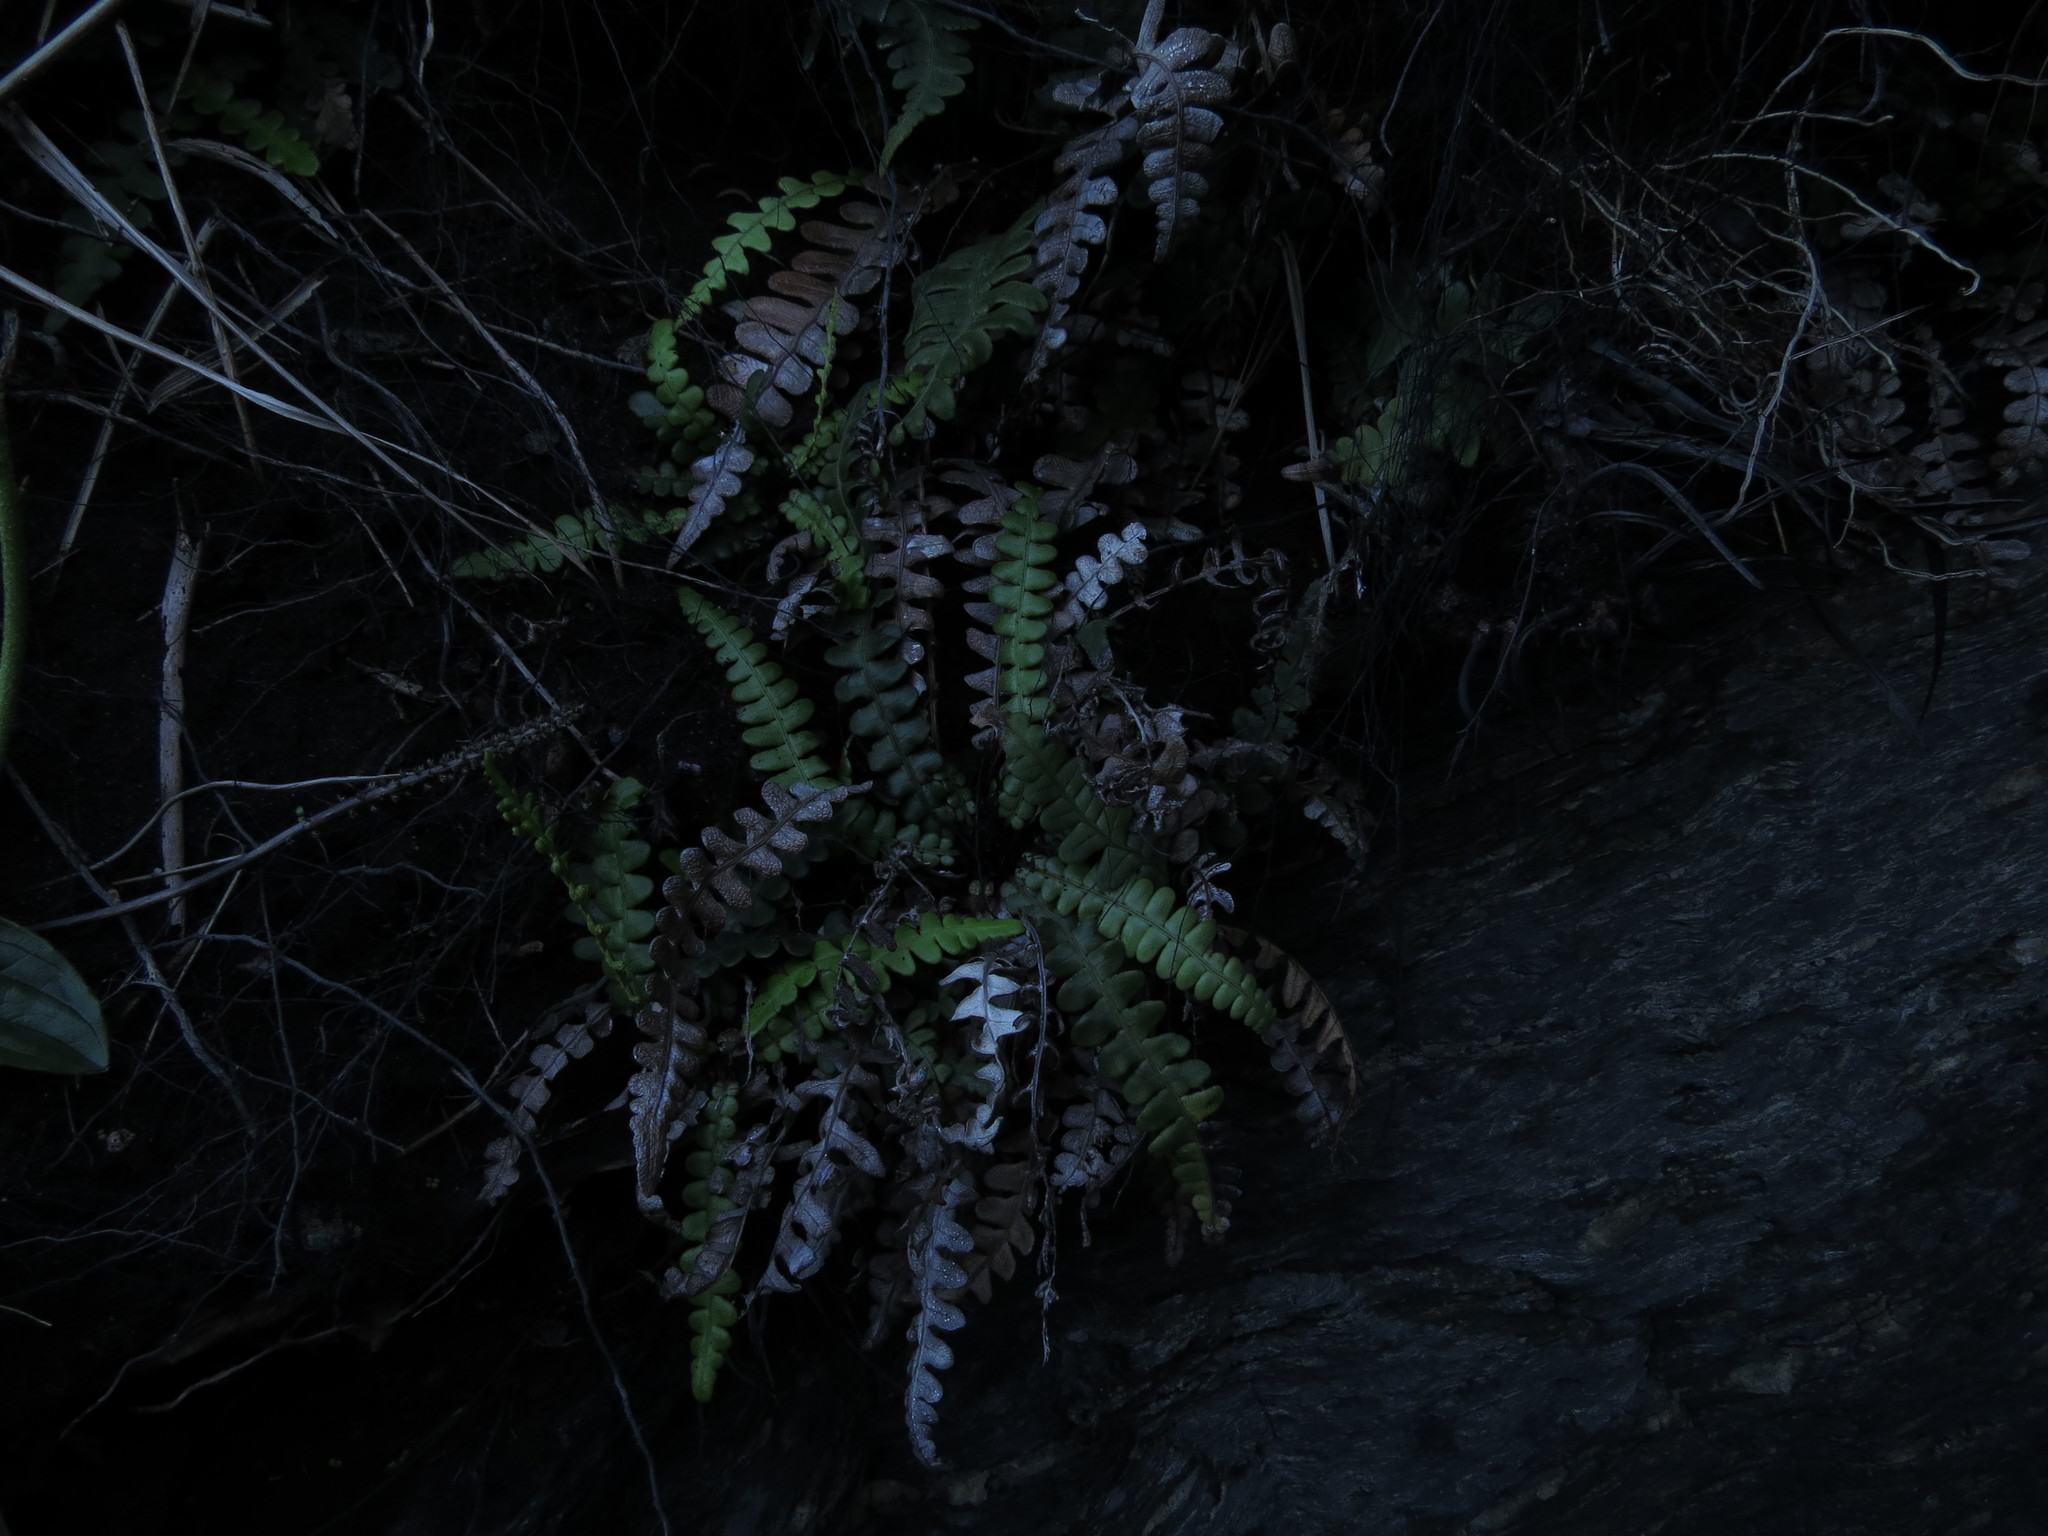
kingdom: Plantae
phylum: Tracheophyta
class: Polypodiopsida
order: Polypodiales
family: Blechnaceae
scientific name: Blechnaceae
